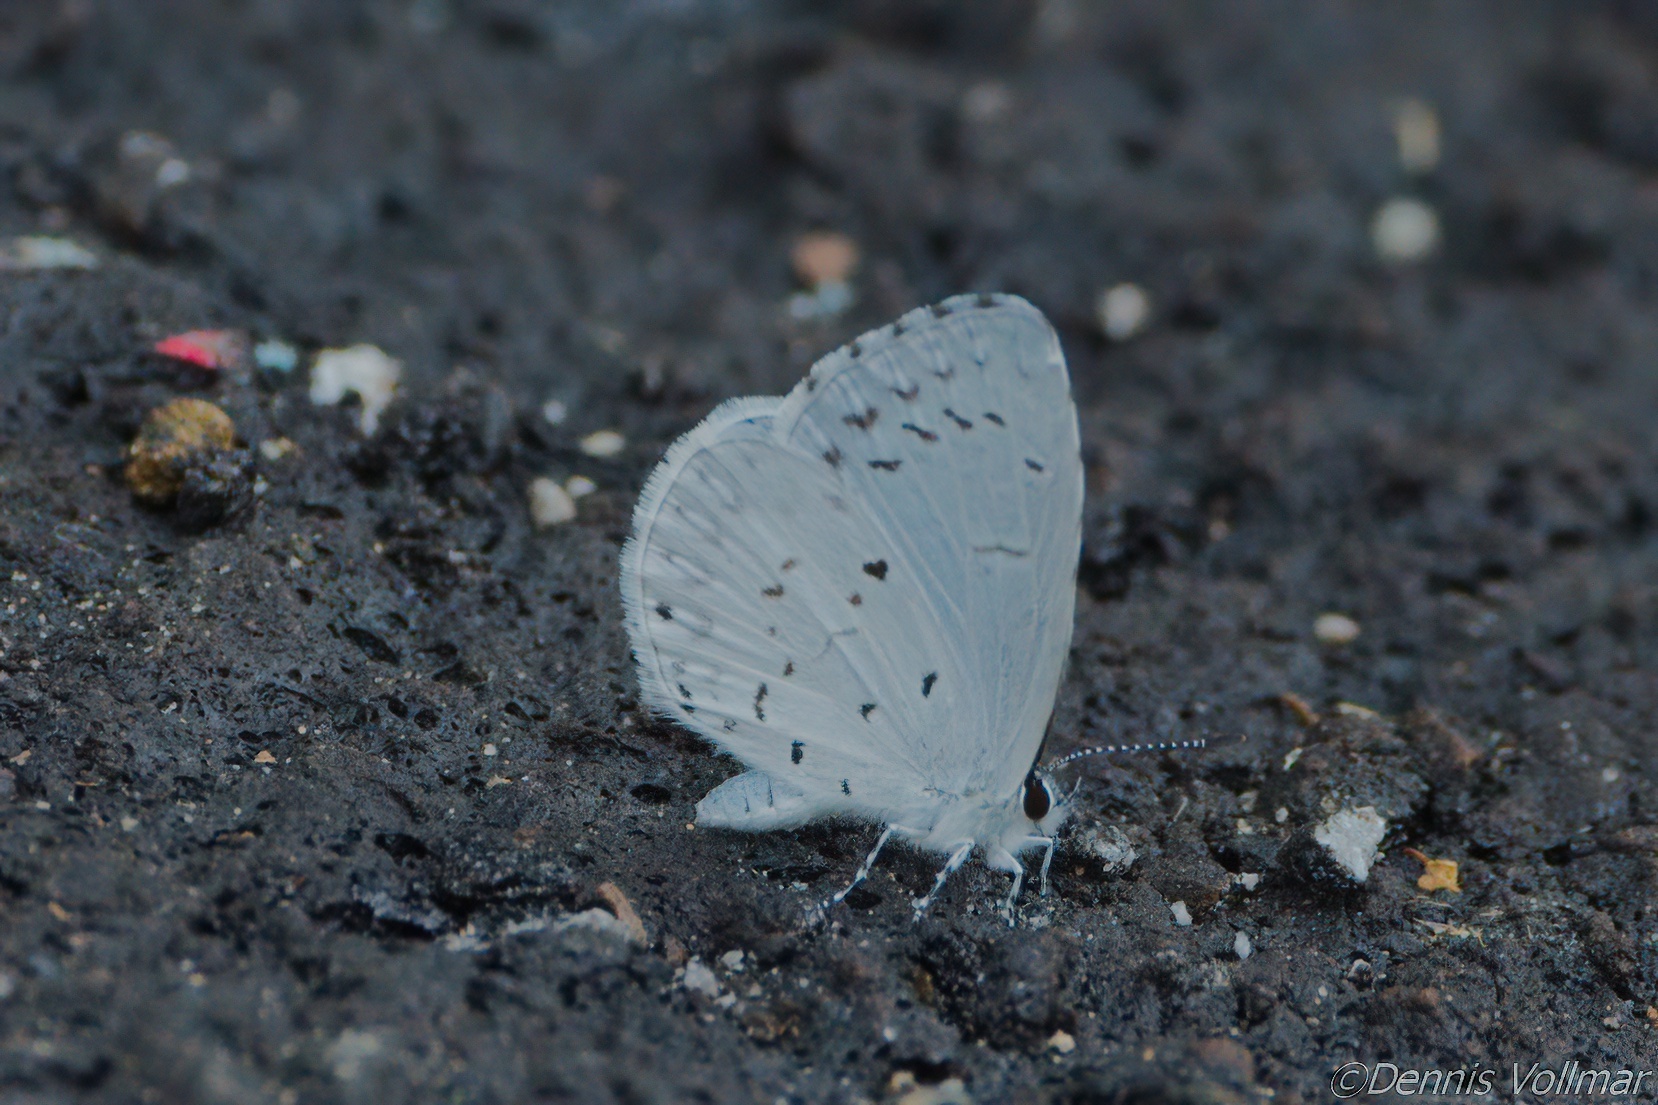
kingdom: Animalia
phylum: Arthropoda
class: Insecta
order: Lepidoptera
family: Lycaenidae
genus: Cyaniris
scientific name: Cyaniris neglecta
